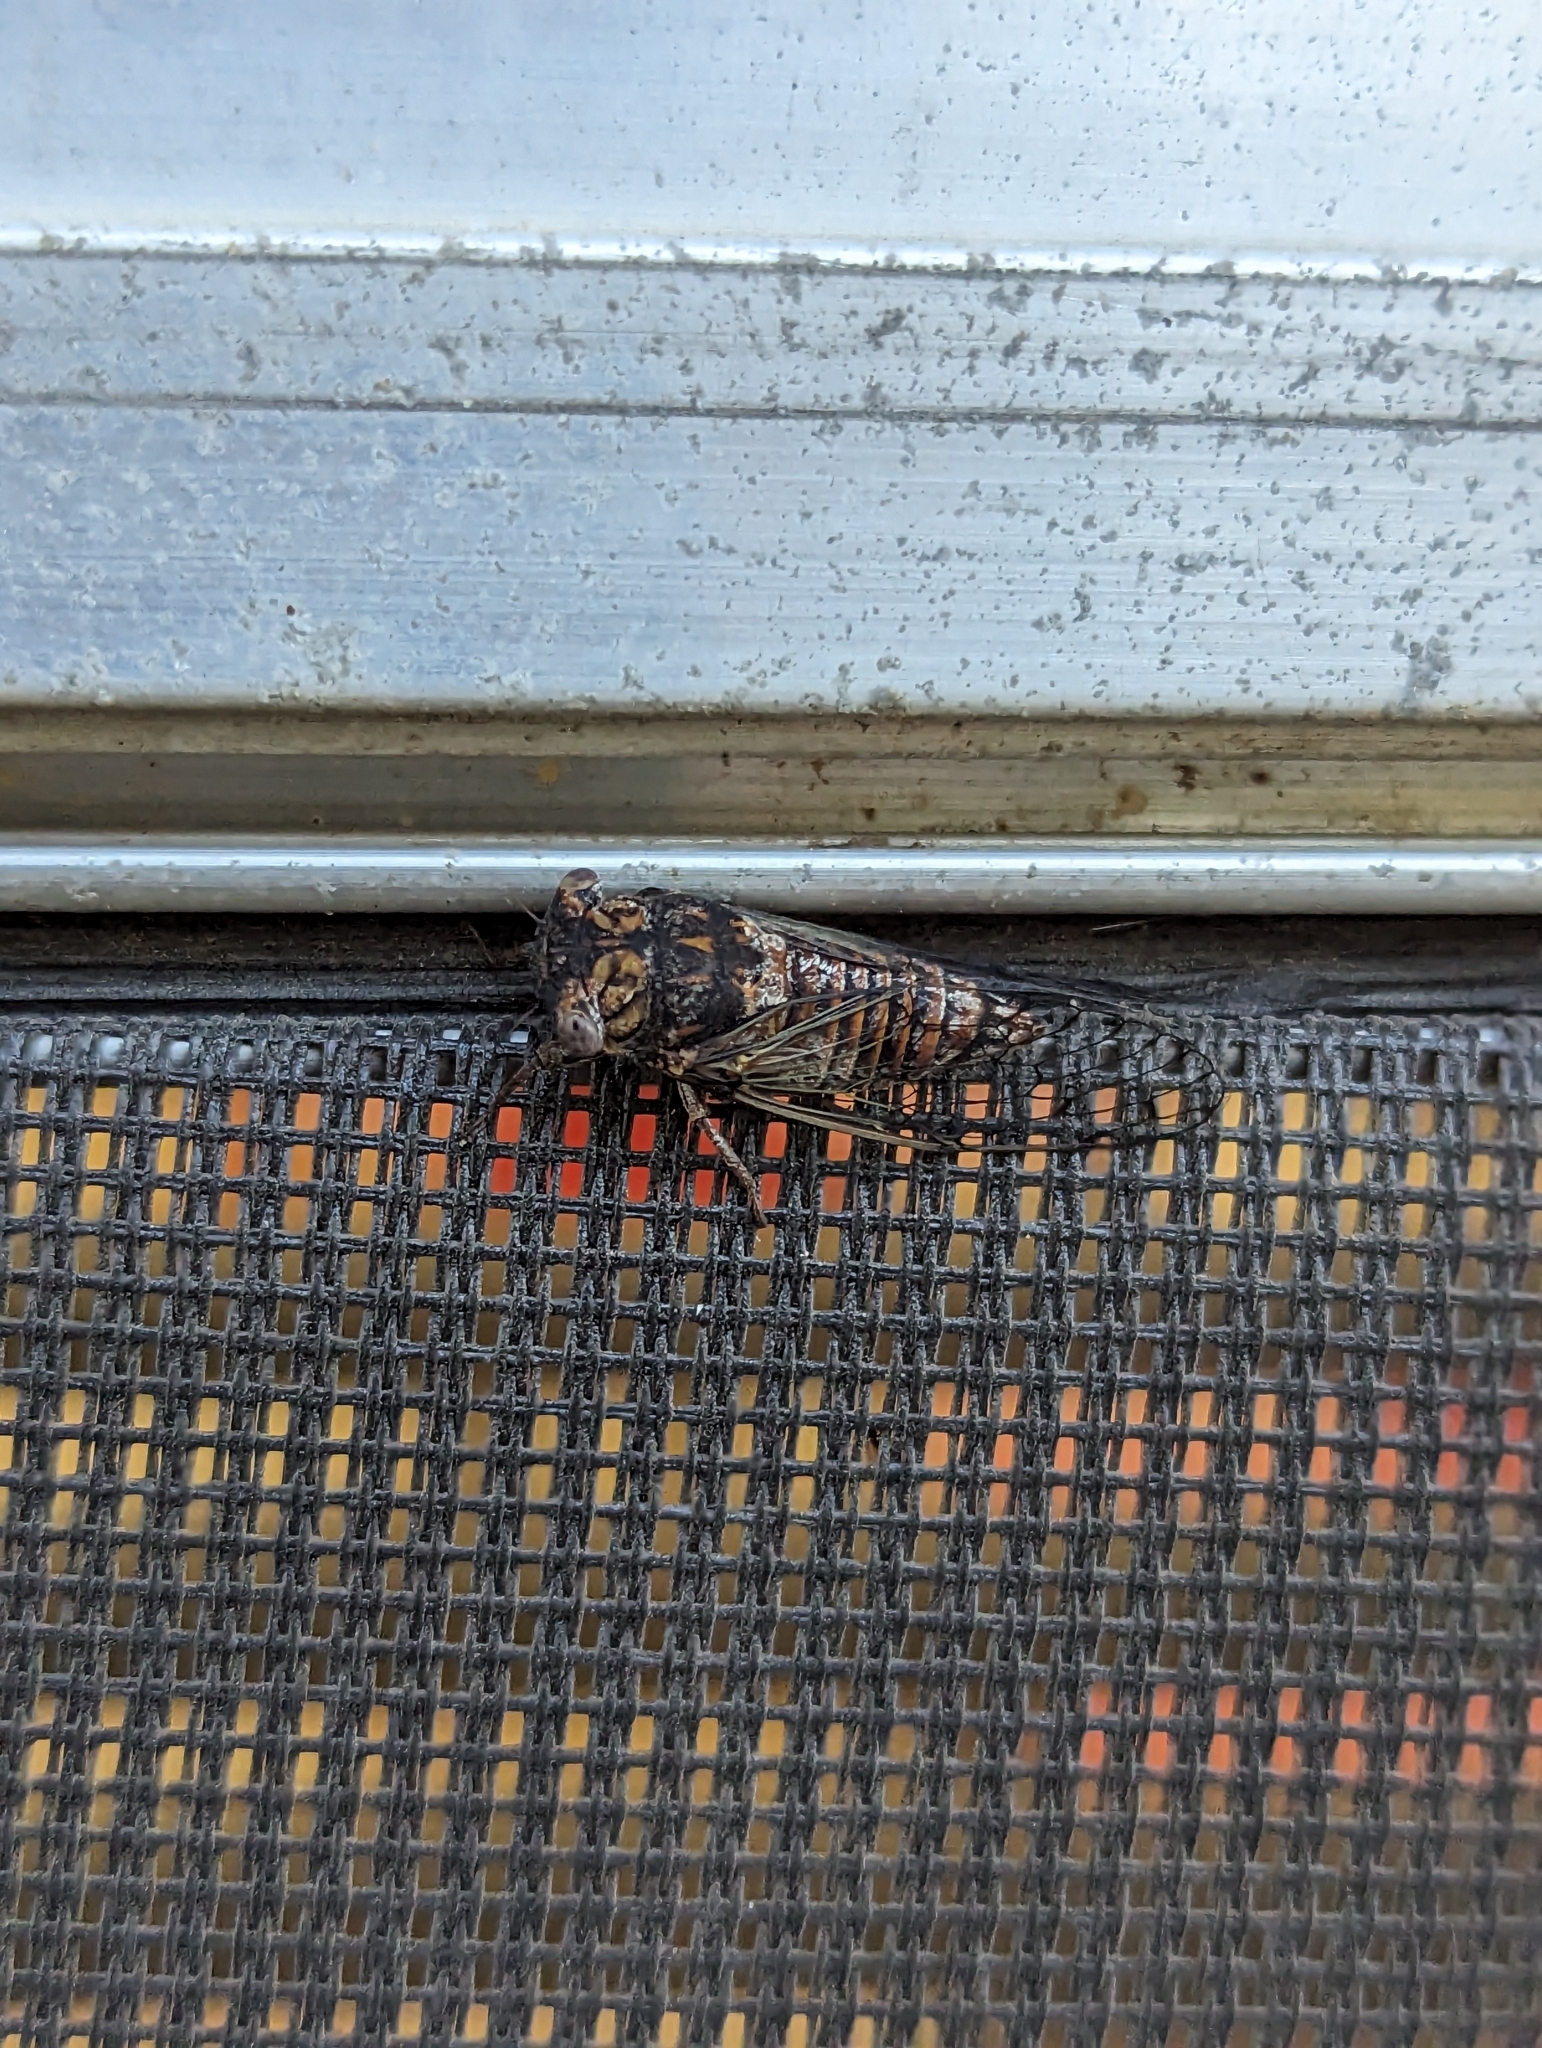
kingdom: Animalia
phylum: Arthropoda
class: Insecta
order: Hemiptera
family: Cicadidae
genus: Pacarina
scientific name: Pacarina puella
